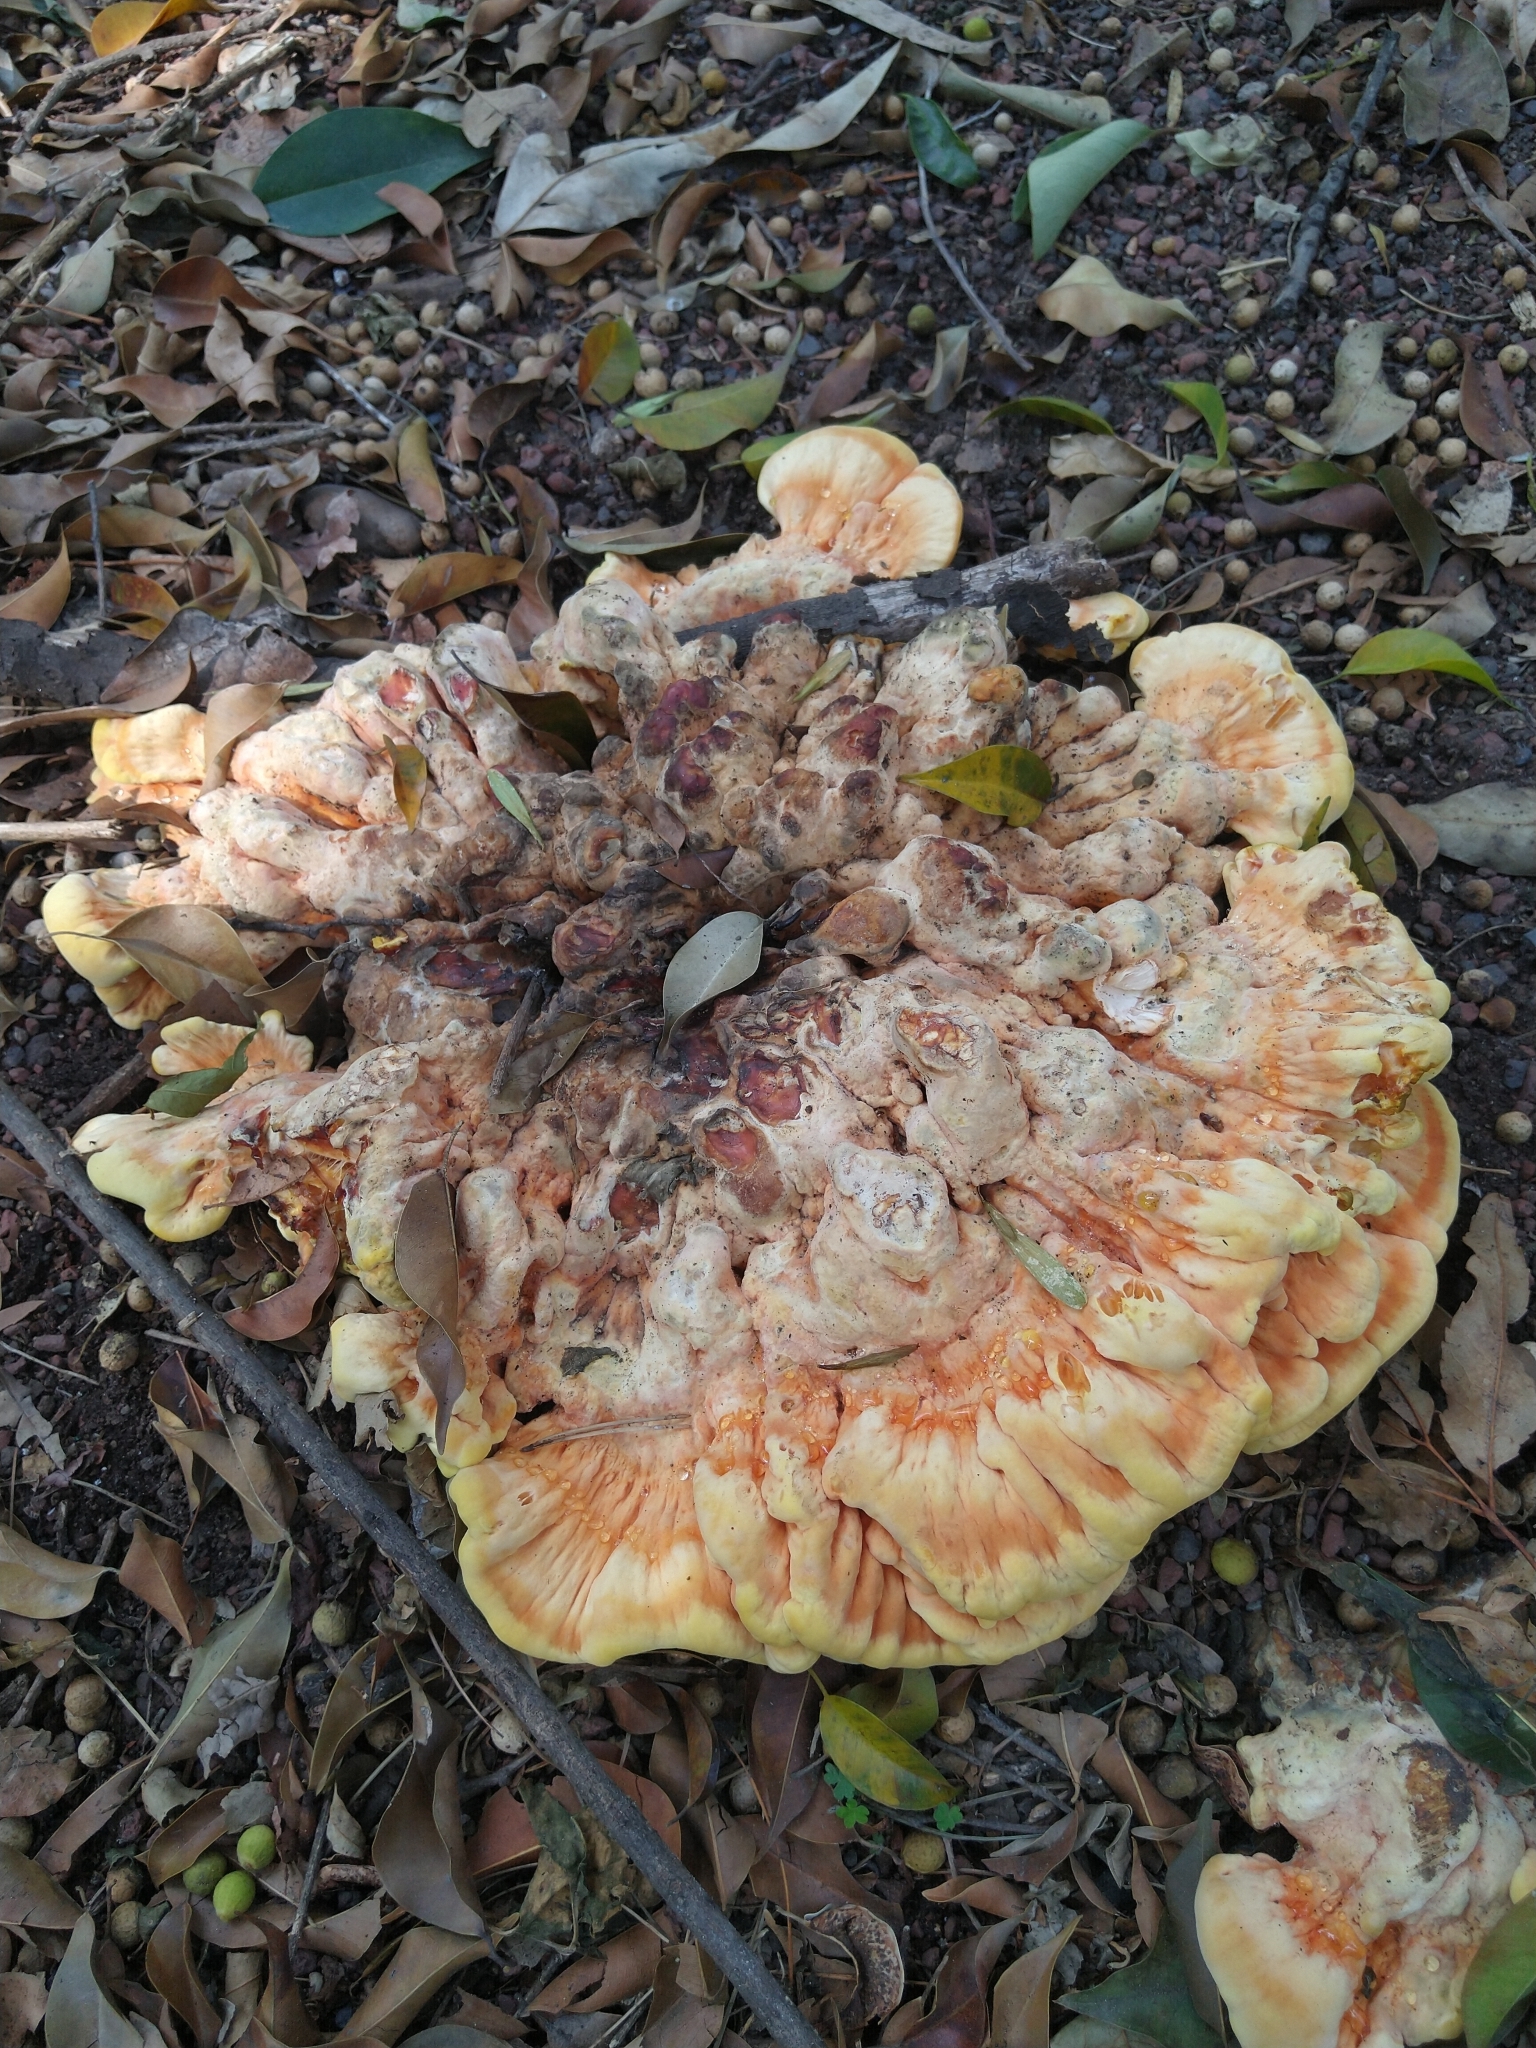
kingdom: Fungi
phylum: Basidiomycota
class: Agaricomycetes
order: Polyporales
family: Laetiporaceae
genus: Laetiporus
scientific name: Laetiporus sulphureus
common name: Chicken of the woods
